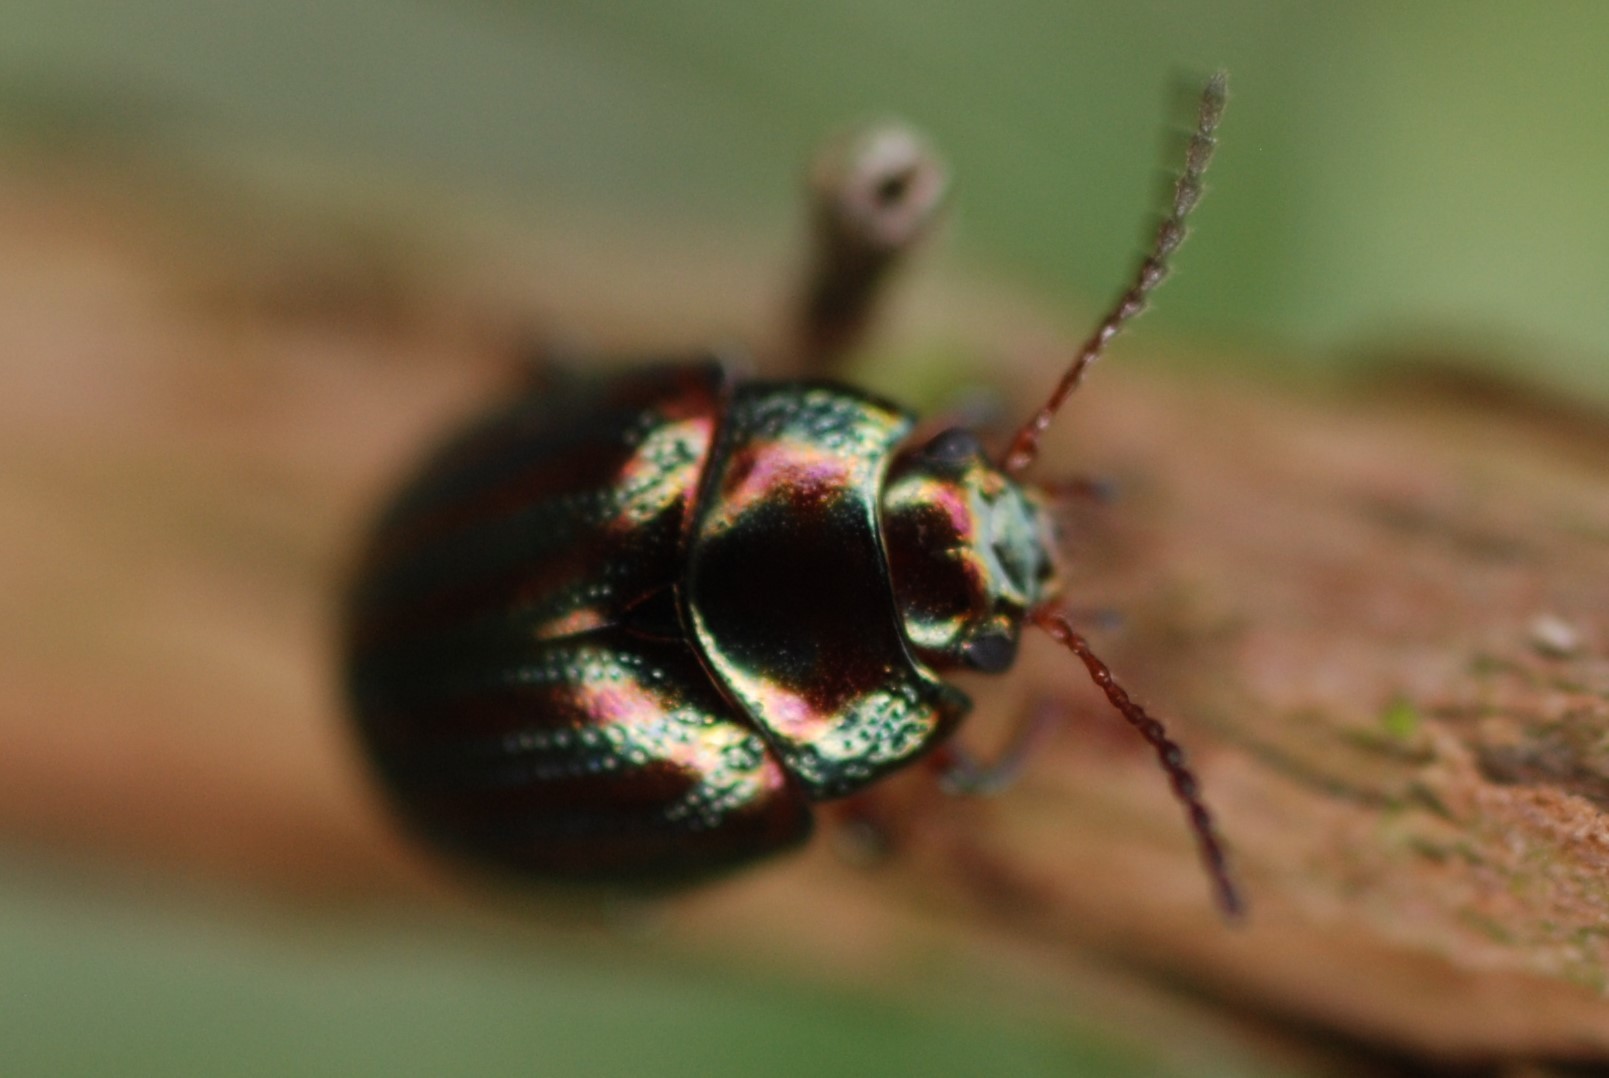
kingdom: Animalia
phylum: Arthropoda
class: Insecta
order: Coleoptera
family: Chrysomelidae
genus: Chrysolina
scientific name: Chrysolina americana
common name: Rosemary beetle
